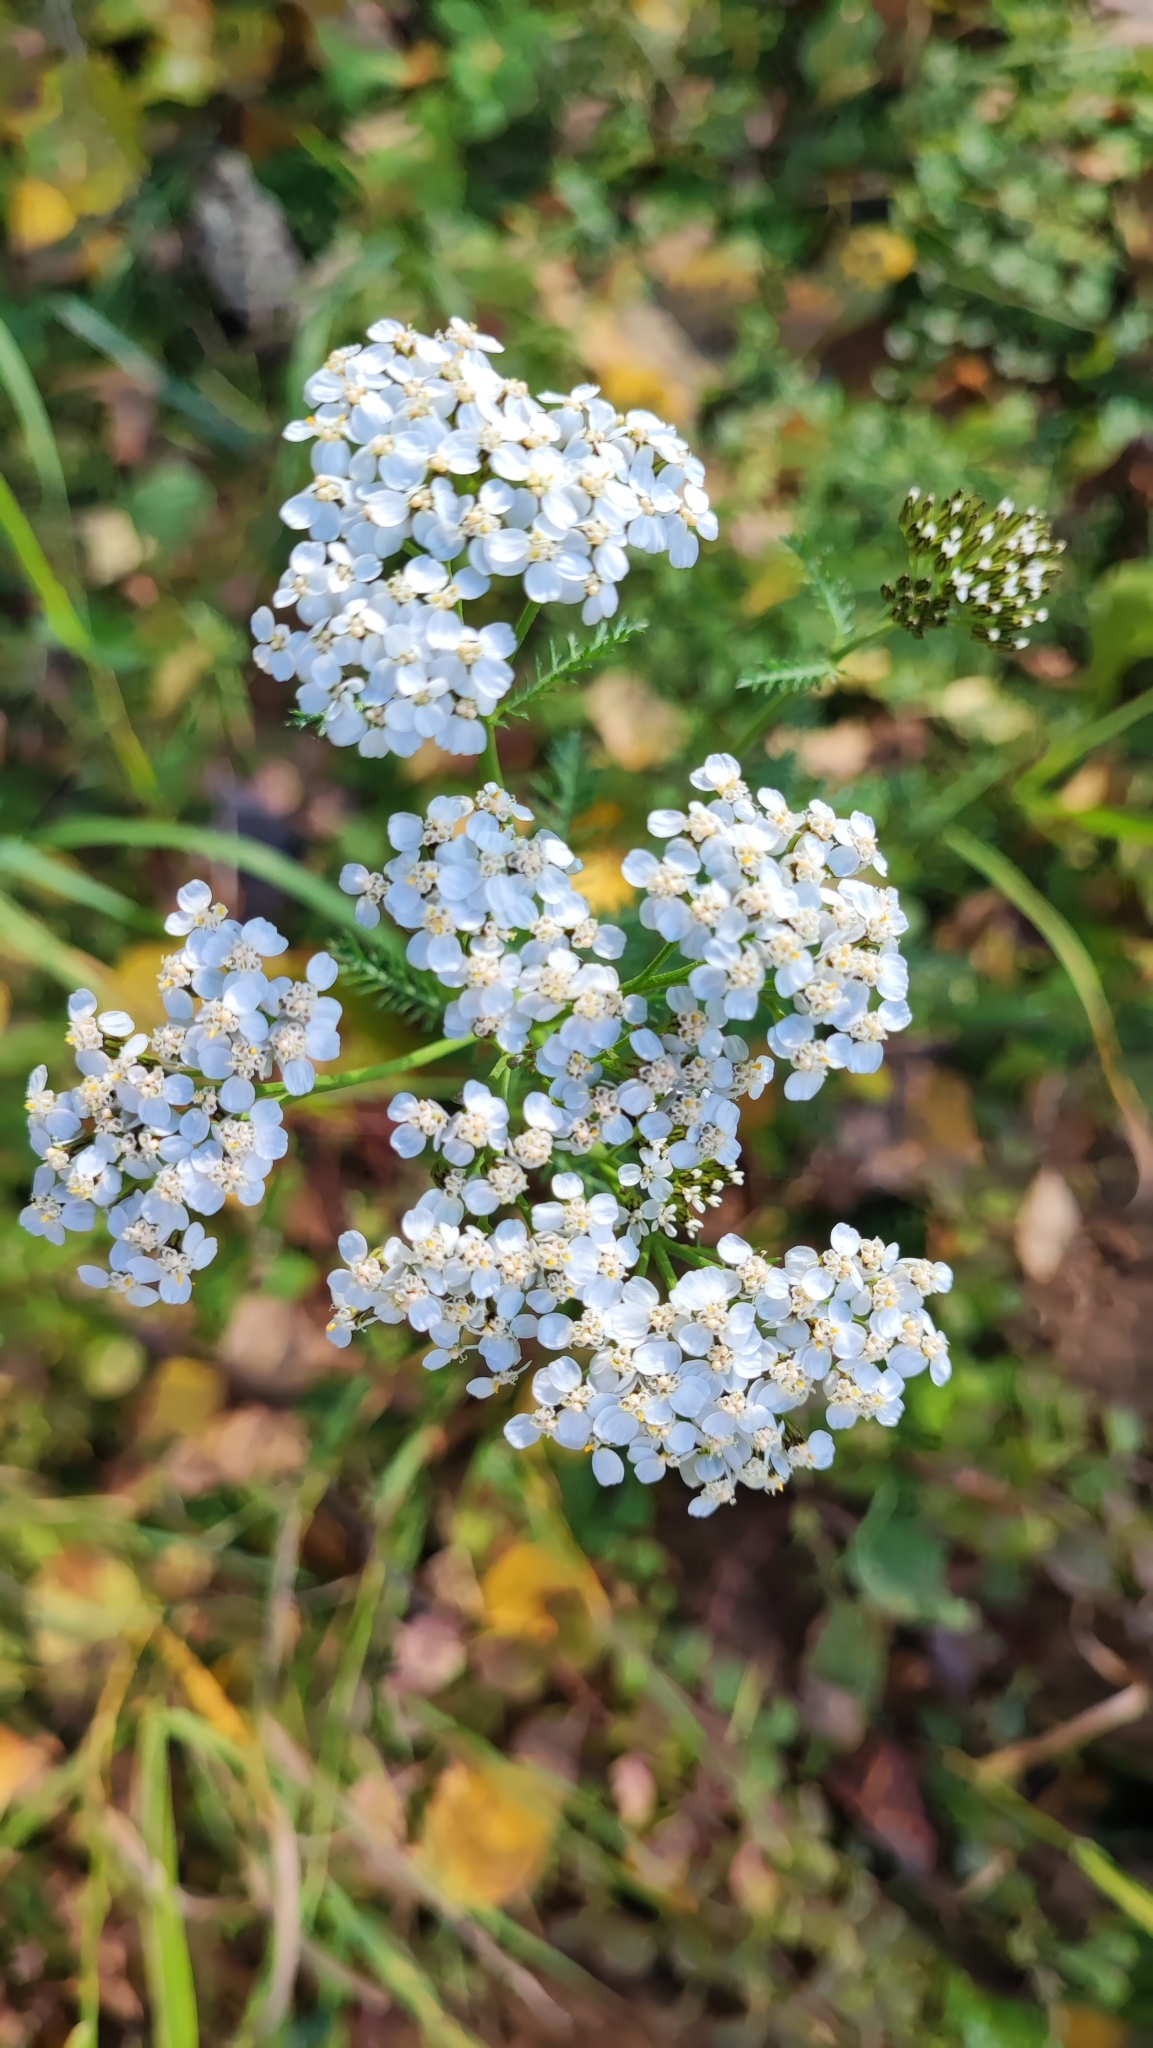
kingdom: Plantae
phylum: Tracheophyta
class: Magnoliopsida
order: Asterales
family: Asteraceae
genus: Achillea
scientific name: Achillea millefolium
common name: Yarrow
